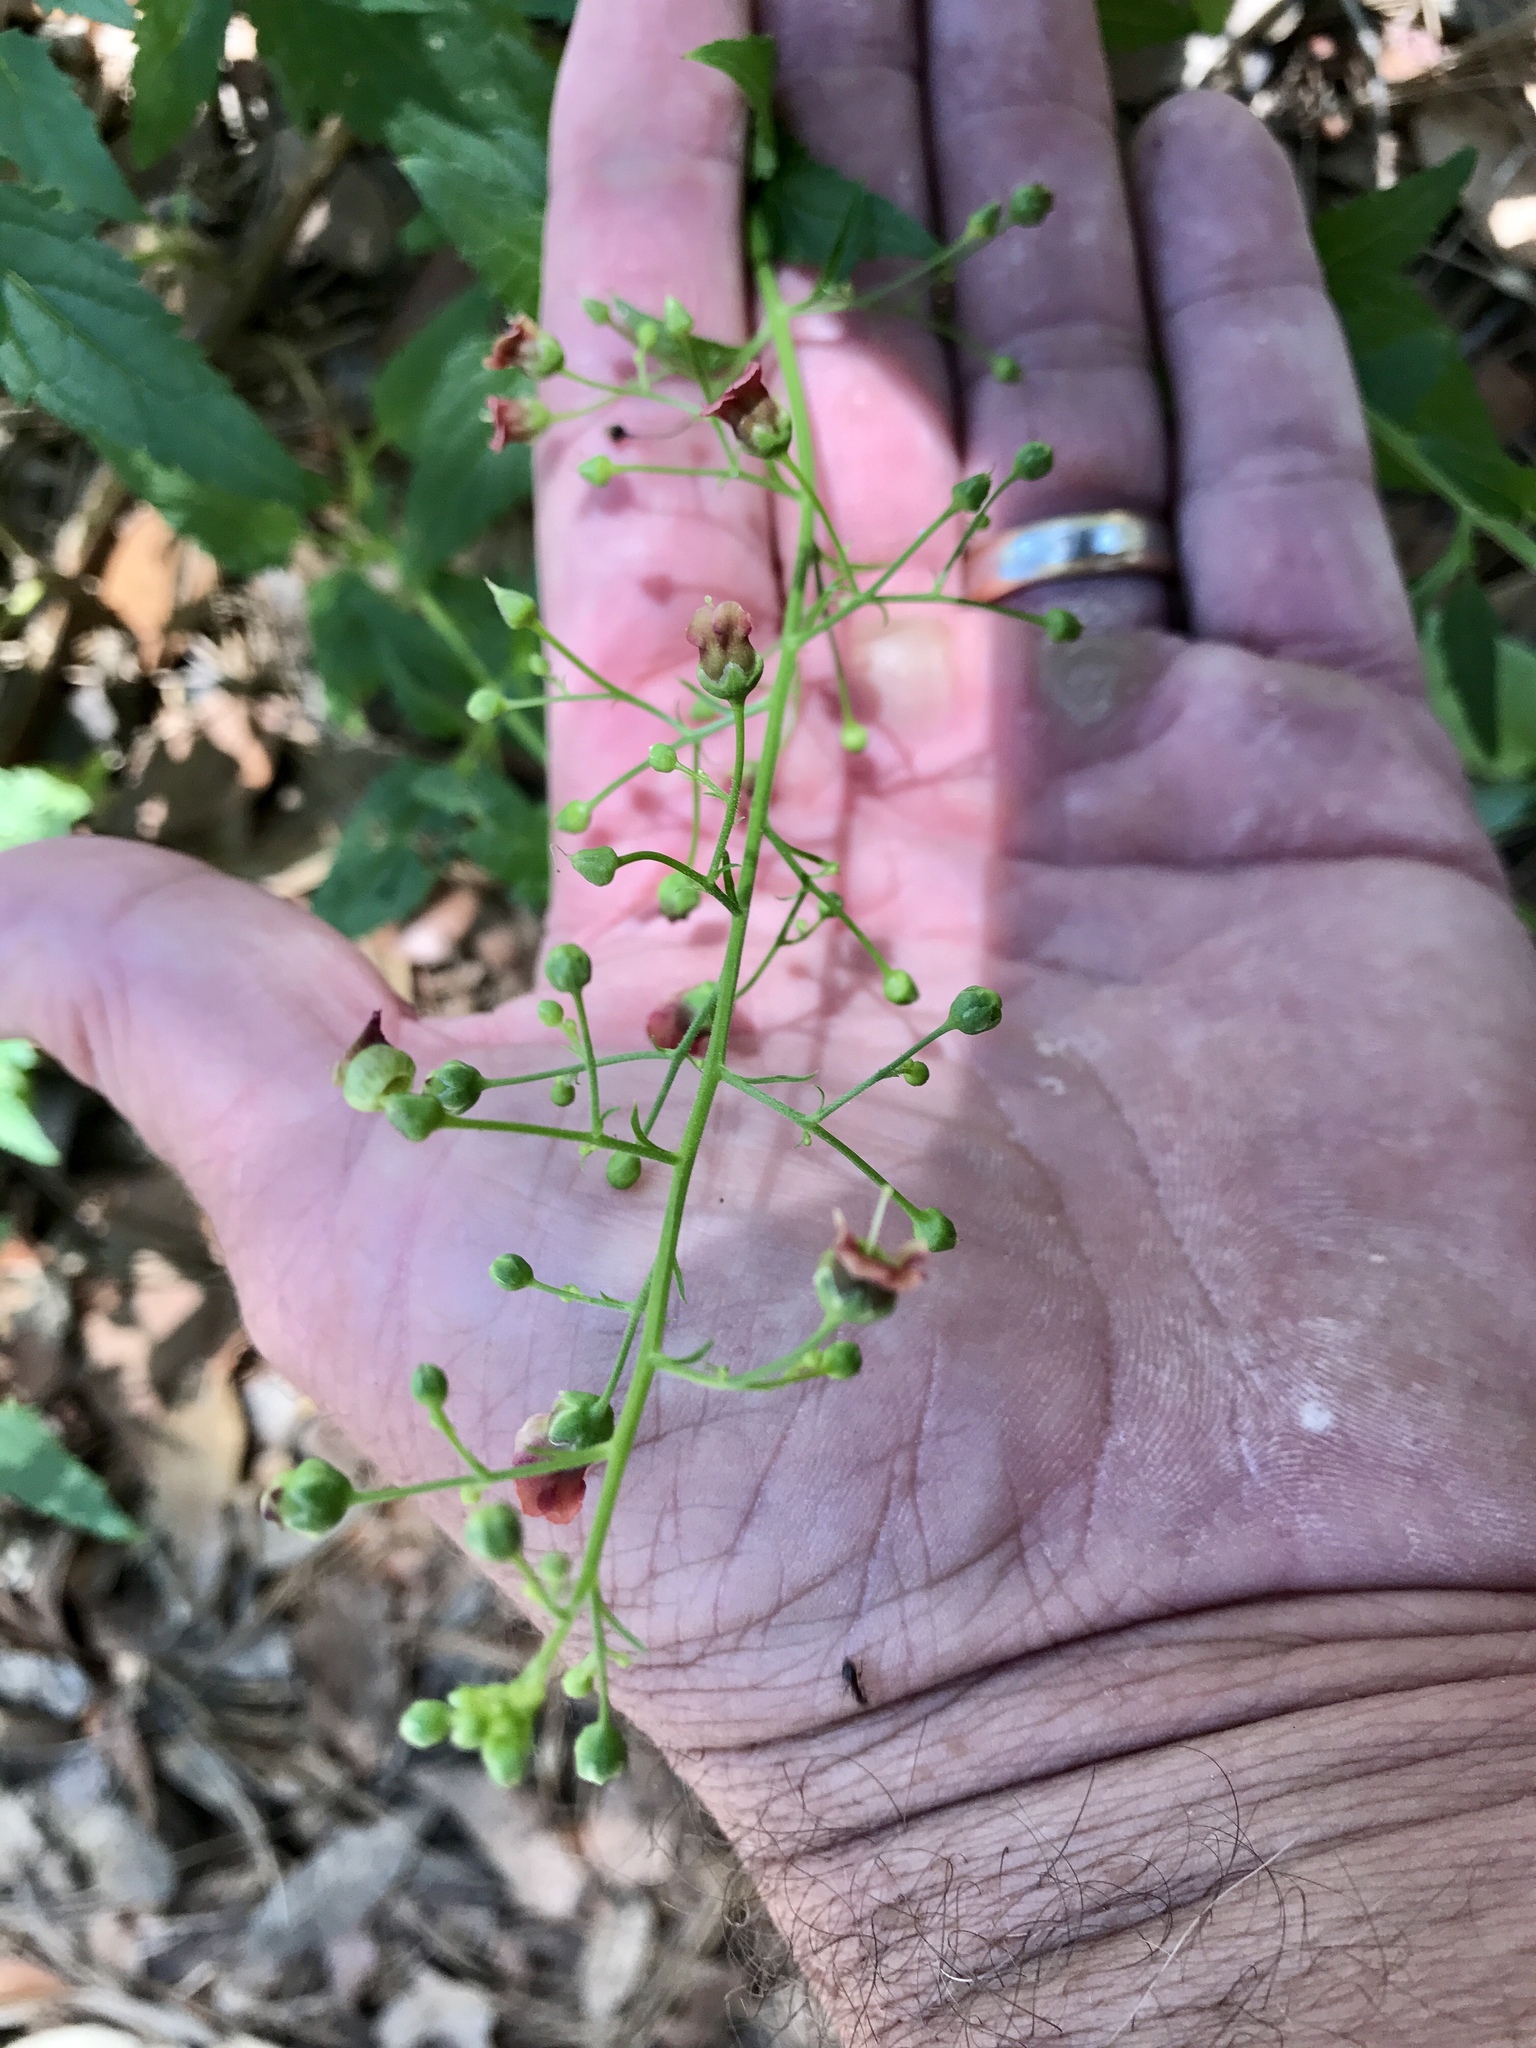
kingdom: Plantae
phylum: Tracheophyta
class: Magnoliopsida
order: Lamiales
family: Scrophulariaceae
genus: Scrophularia
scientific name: Scrophularia parviflora
